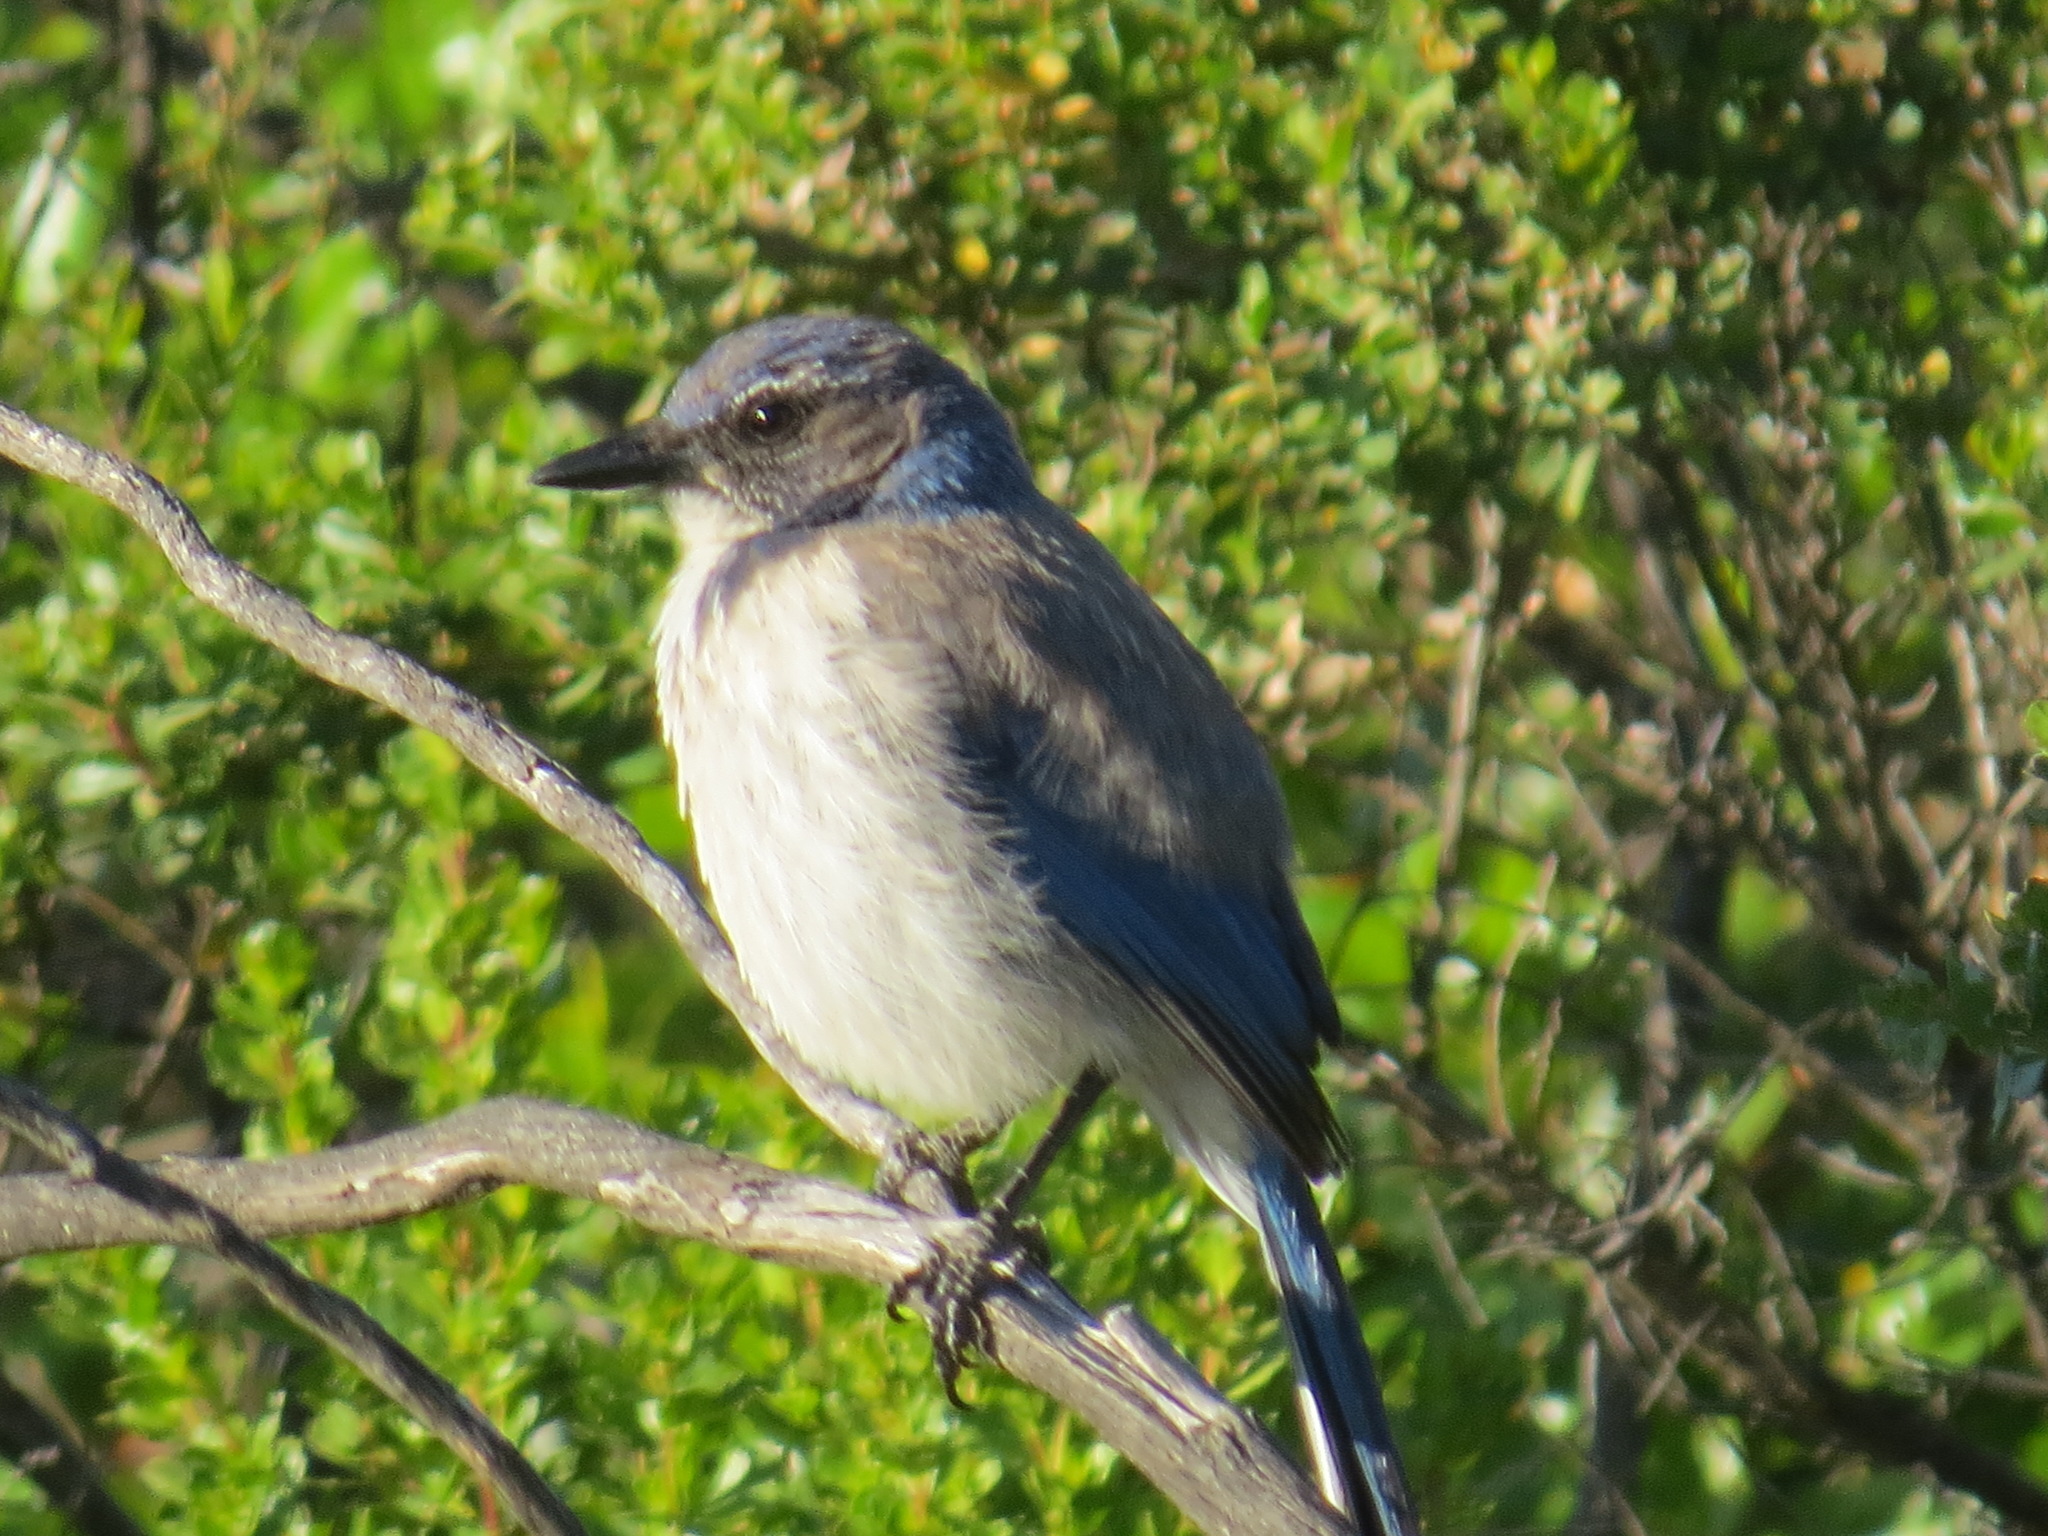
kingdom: Animalia
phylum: Chordata
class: Aves
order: Passeriformes
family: Corvidae
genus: Aphelocoma
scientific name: Aphelocoma californica
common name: California scrub-jay
